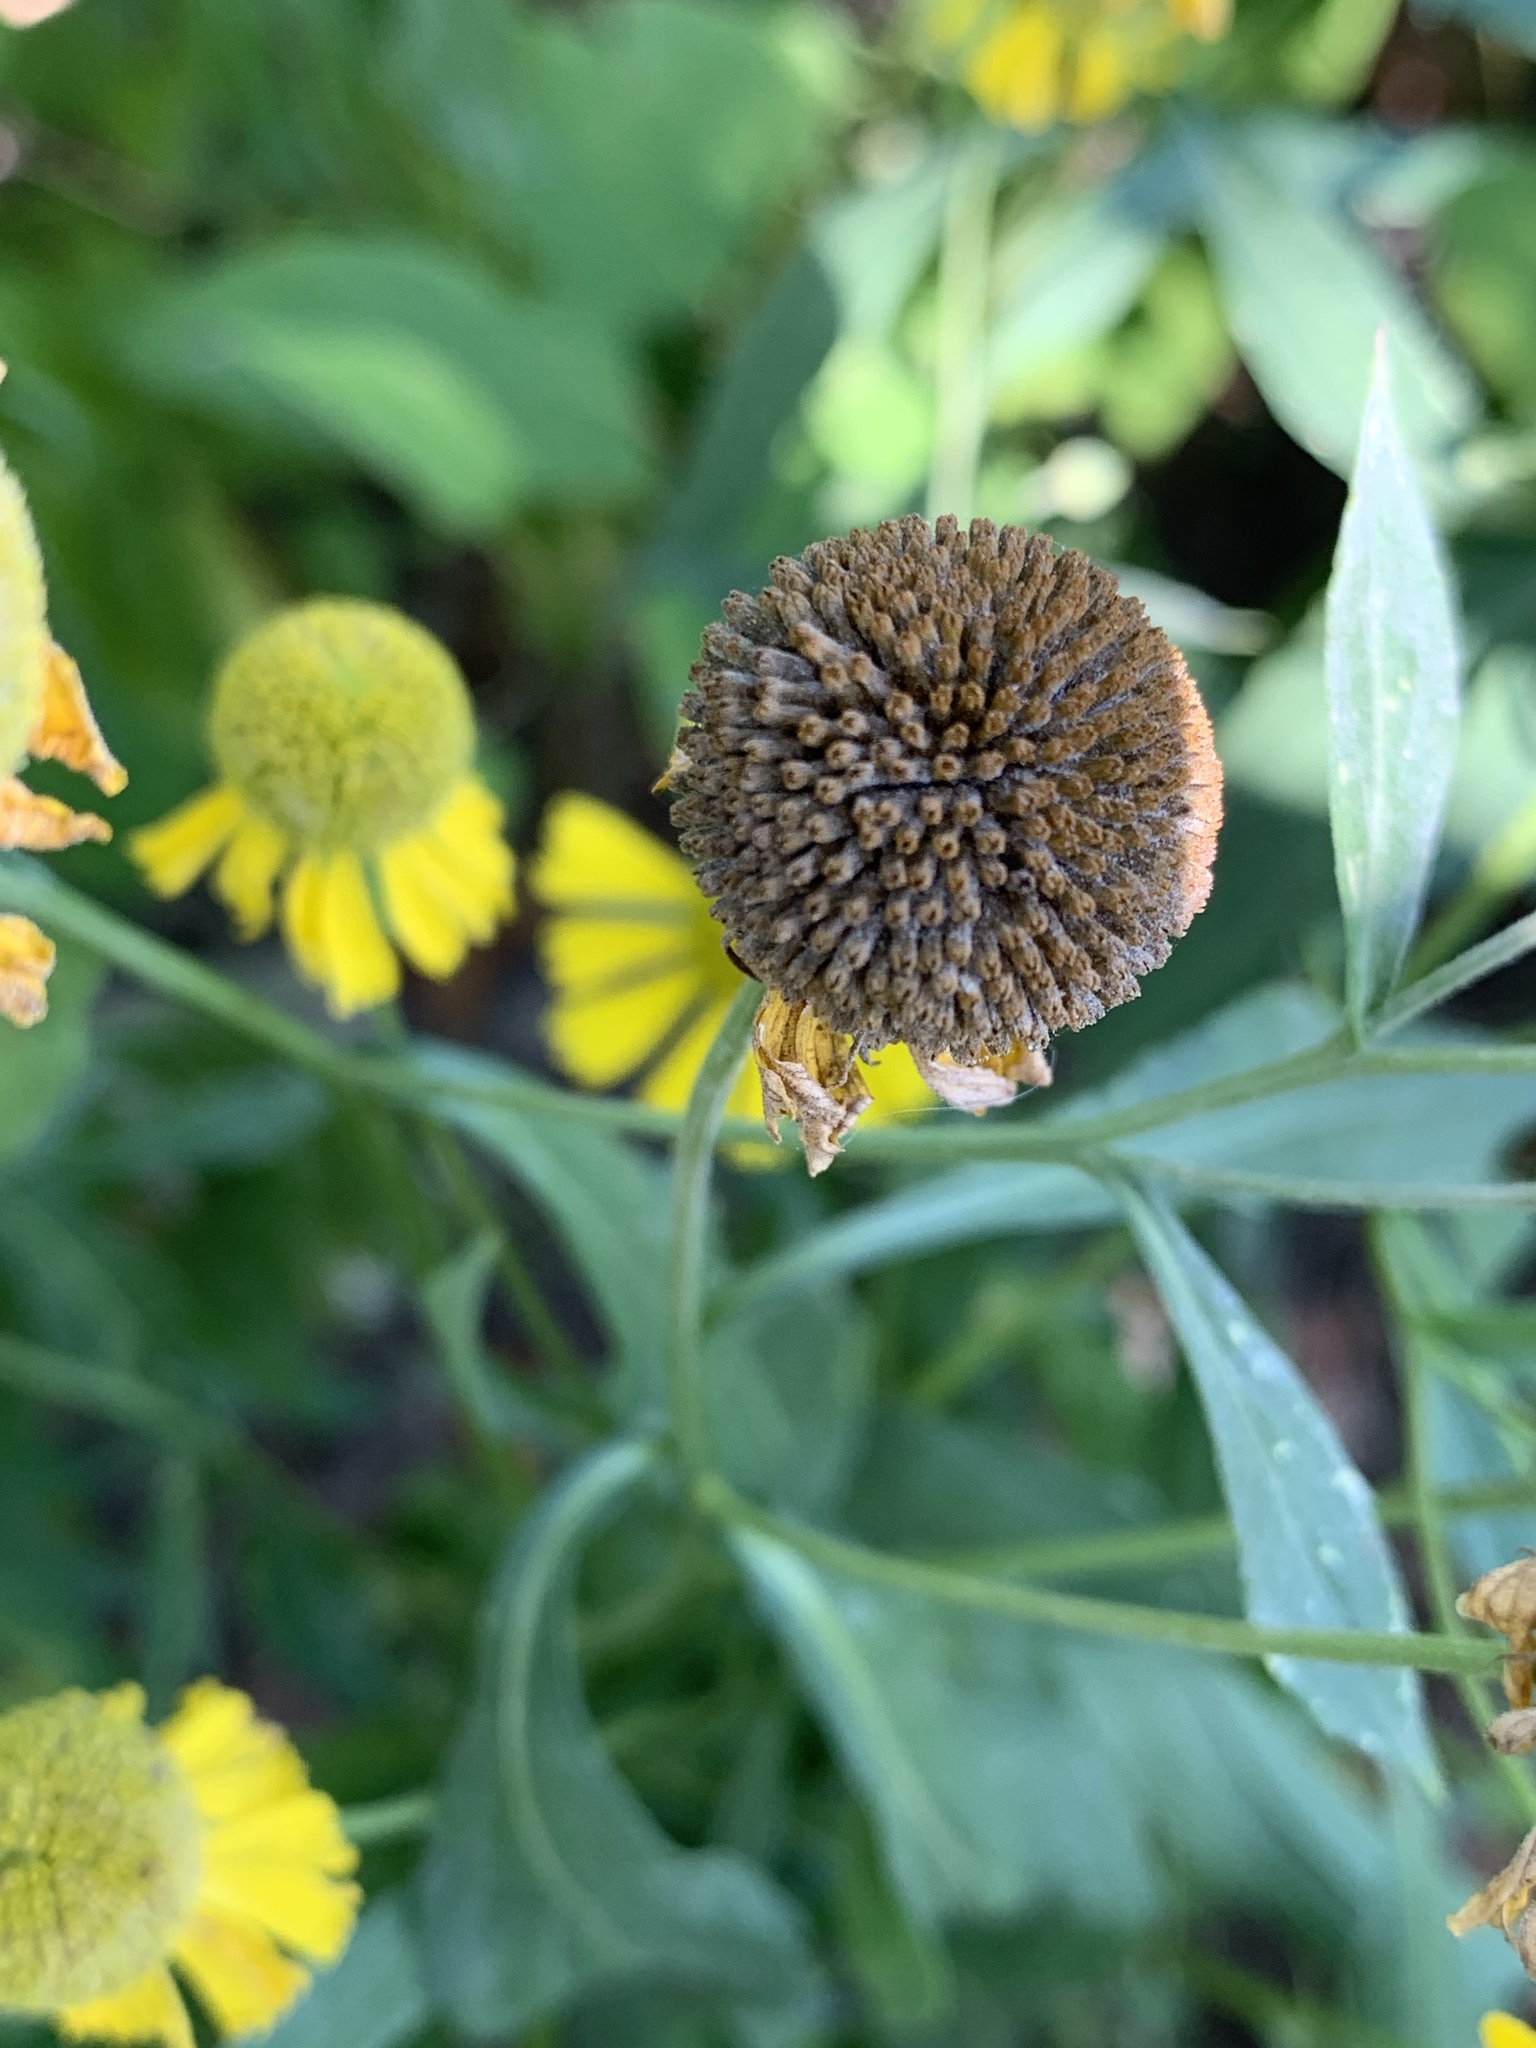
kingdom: Plantae
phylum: Tracheophyta
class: Magnoliopsida
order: Asterales
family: Asteraceae
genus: Helenium
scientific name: Helenium autumnale
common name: Sneezeweed
